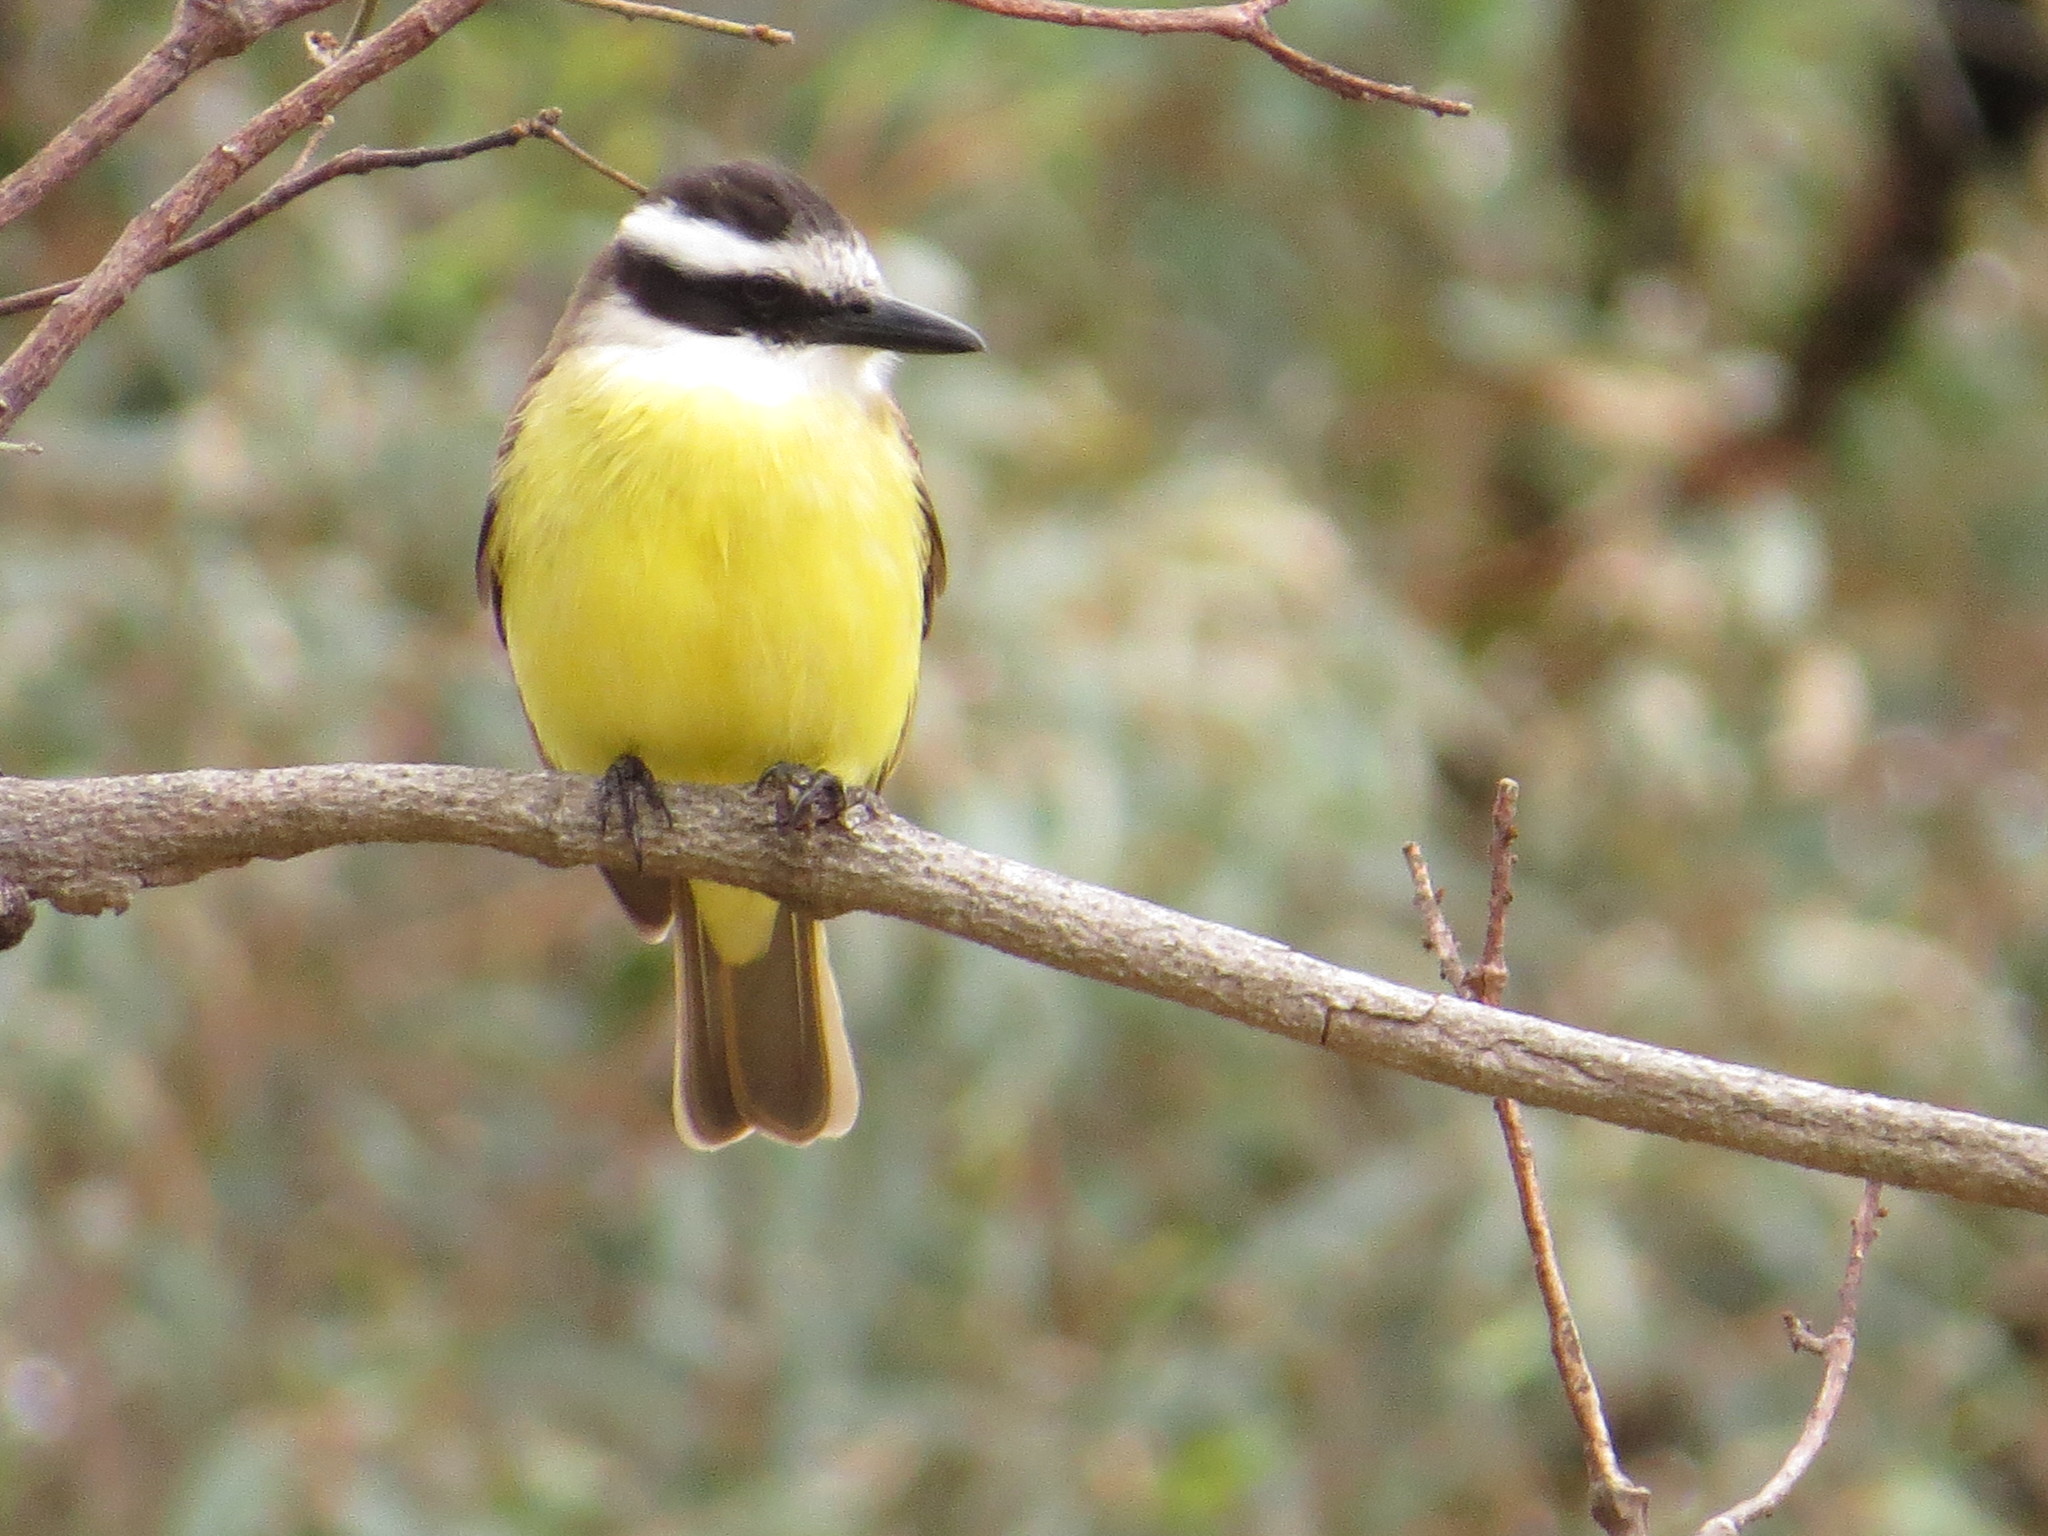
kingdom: Animalia
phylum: Chordata
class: Aves
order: Passeriformes
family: Tyrannidae
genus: Pitangus
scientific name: Pitangus sulphuratus
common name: Great kiskadee
